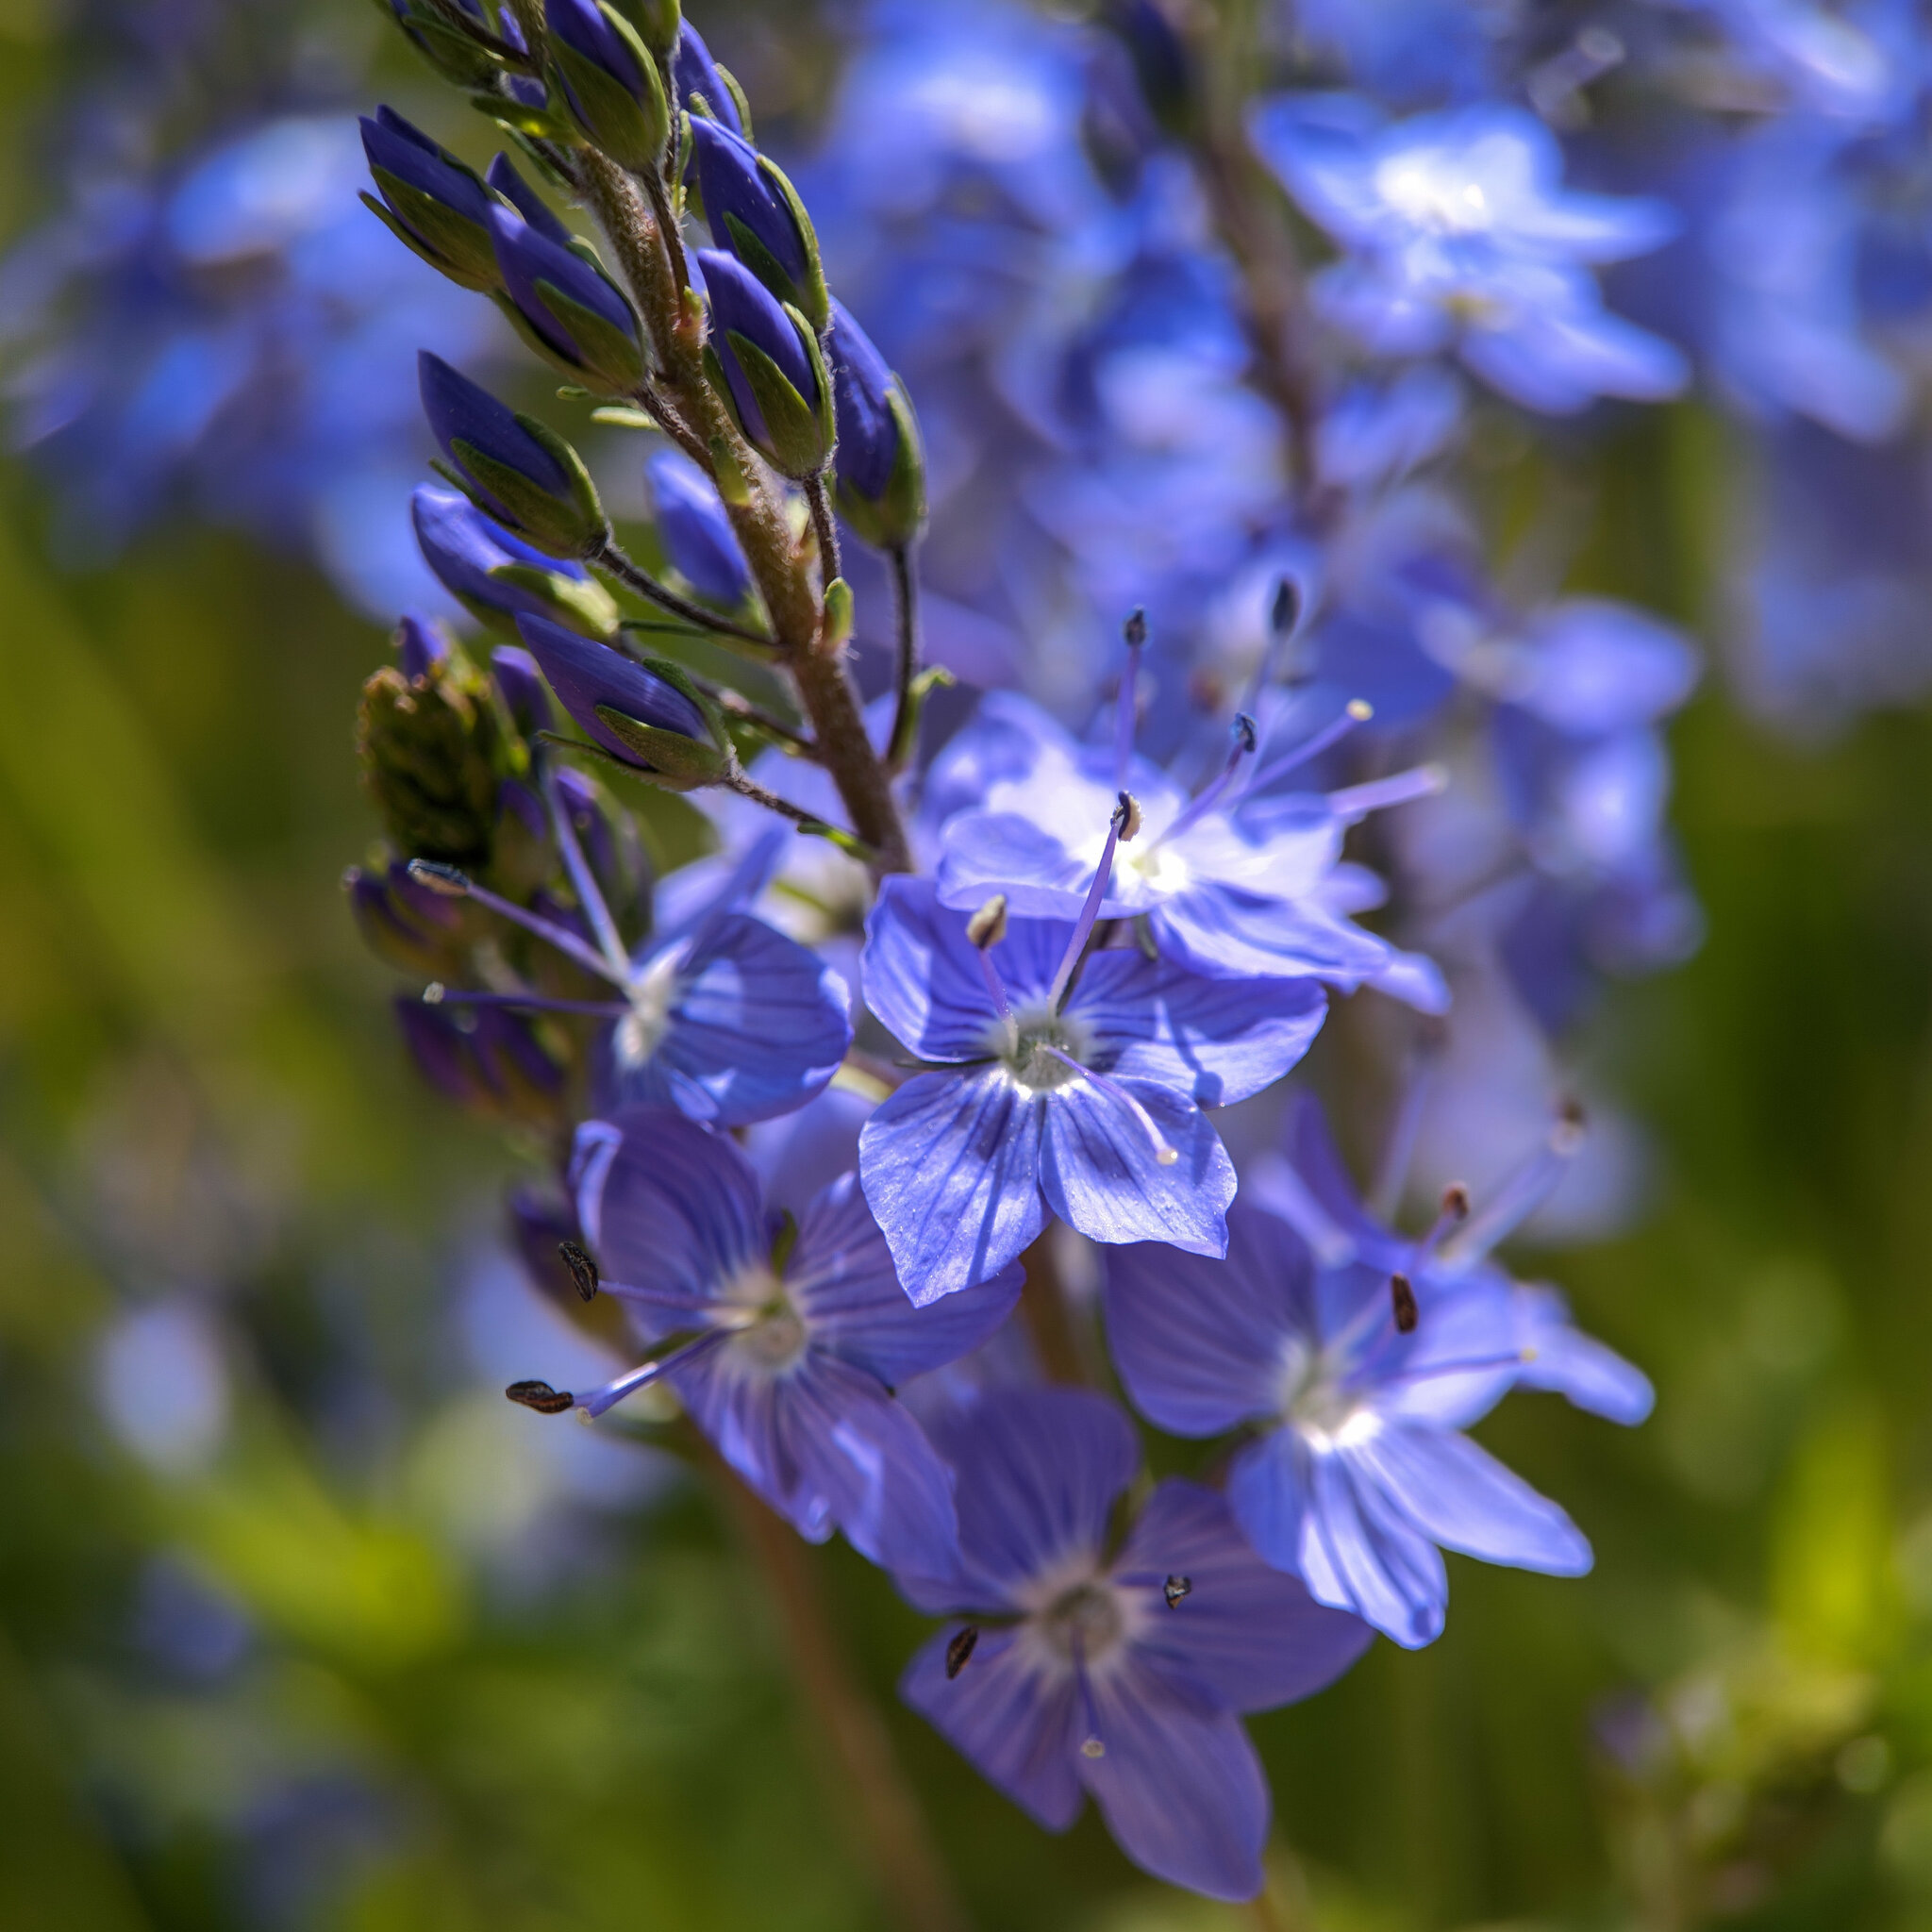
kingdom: Plantae
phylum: Tracheophyta
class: Magnoliopsida
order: Lamiales
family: Plantaginaceae
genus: Veronica
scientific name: Veronica teucrium
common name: Large speedwell
